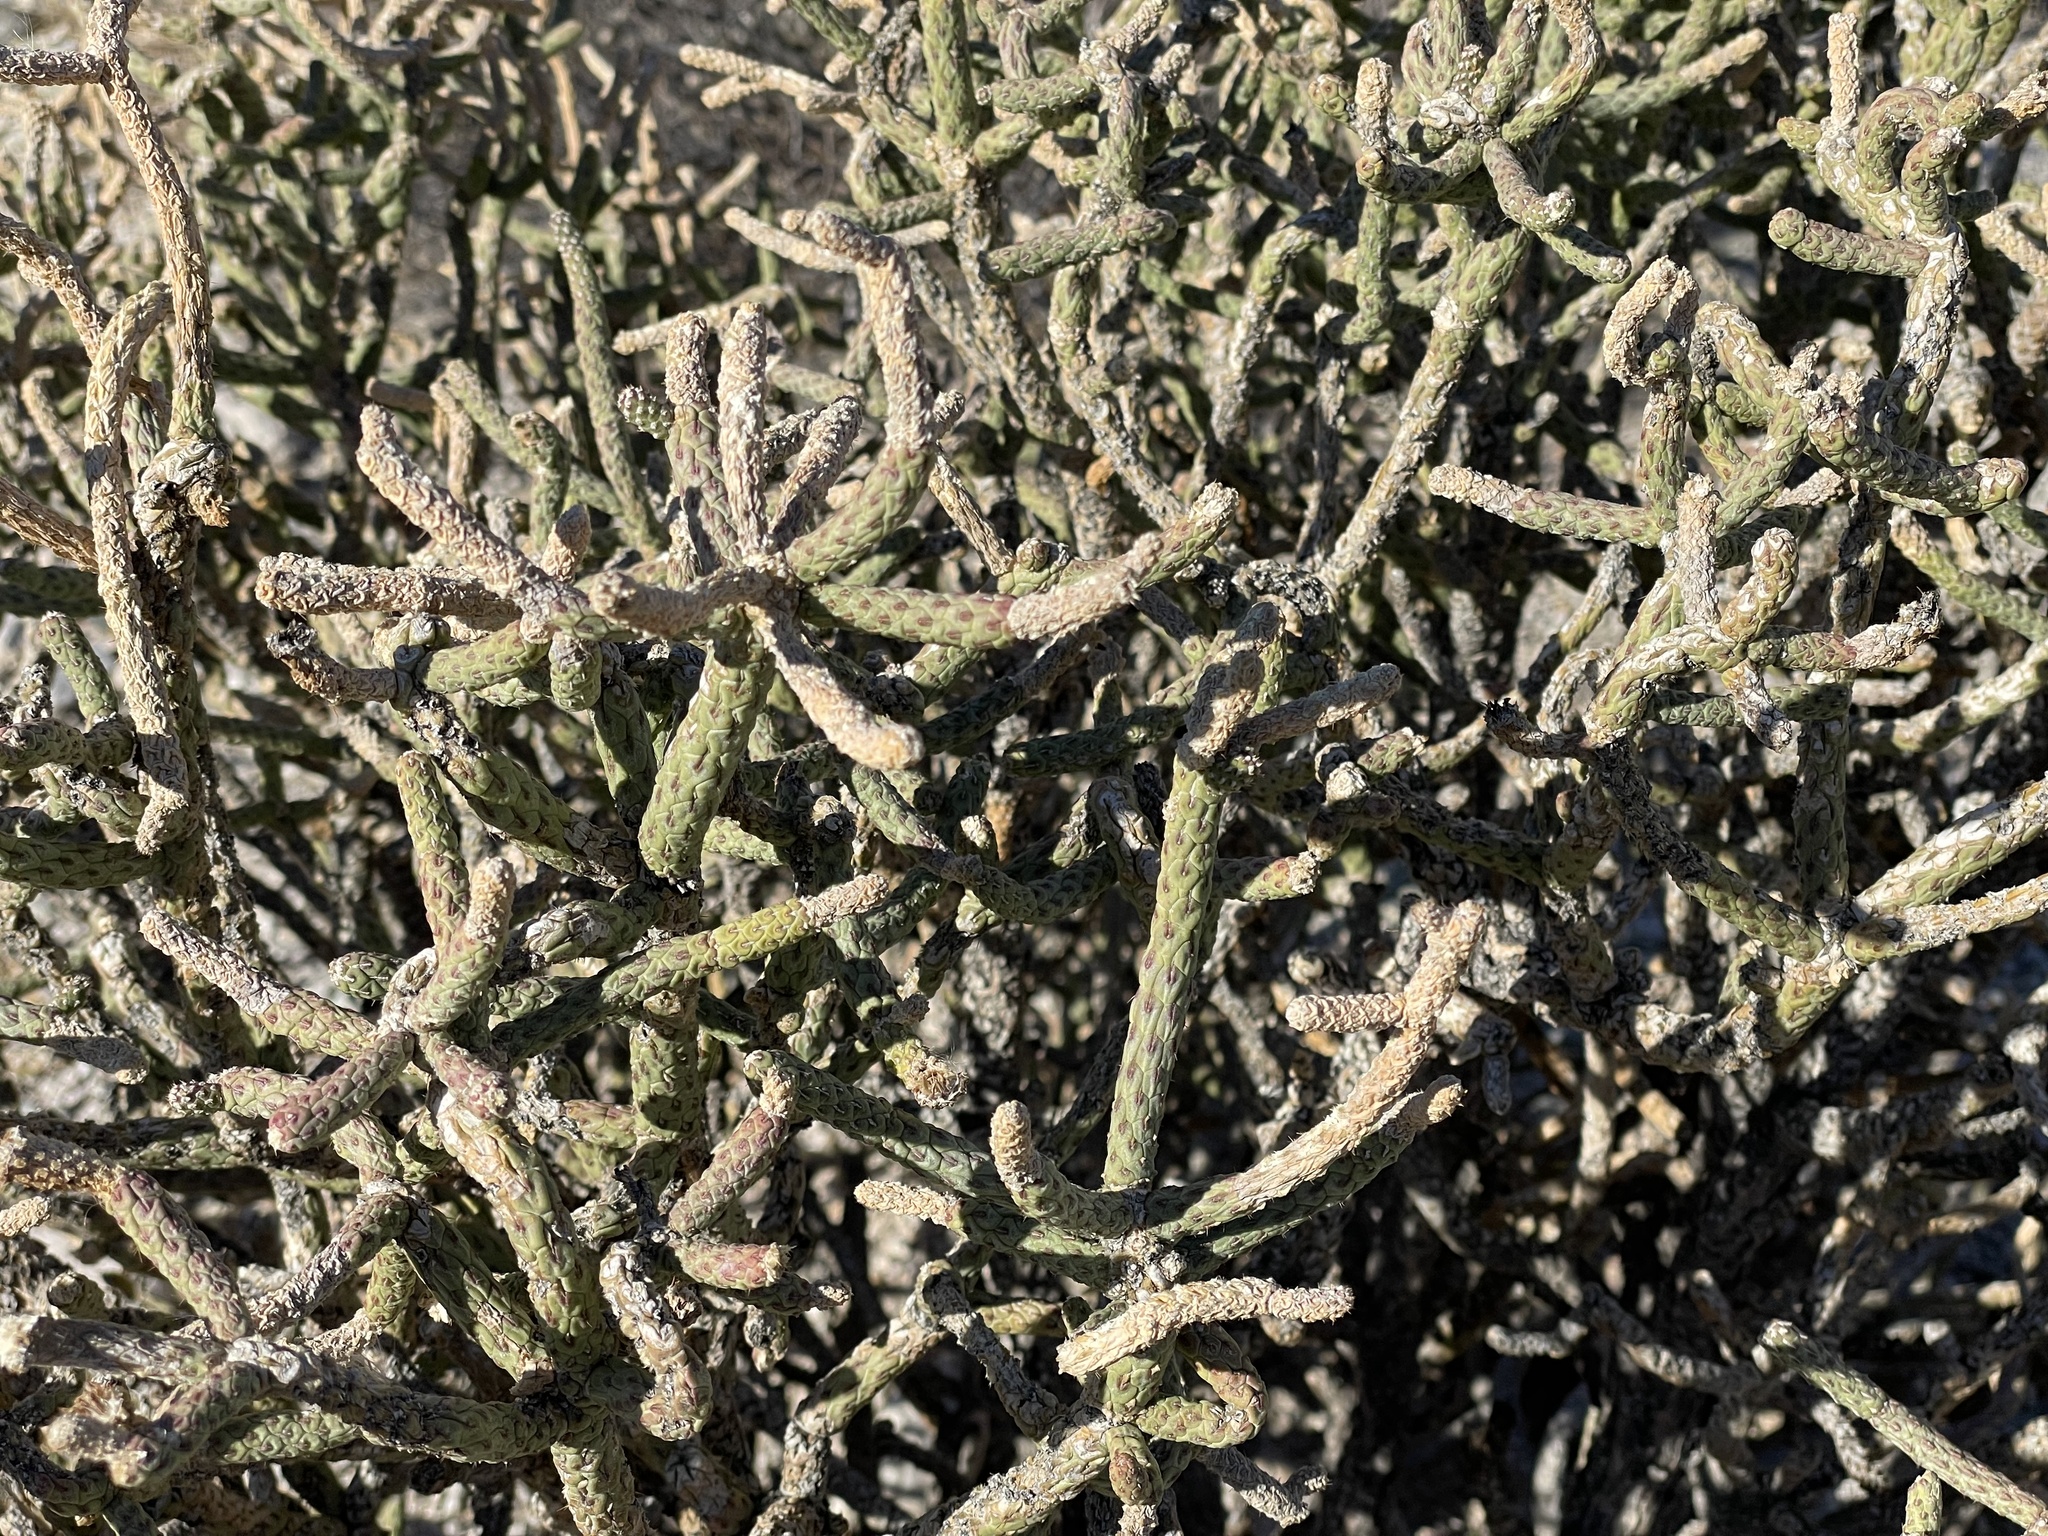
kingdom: Plantae
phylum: Tracheophyta
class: Magnoliopsida
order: Caryophyllales
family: Cactaceae
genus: Cylindropuntia
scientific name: Cylindropuntia ramosissima
